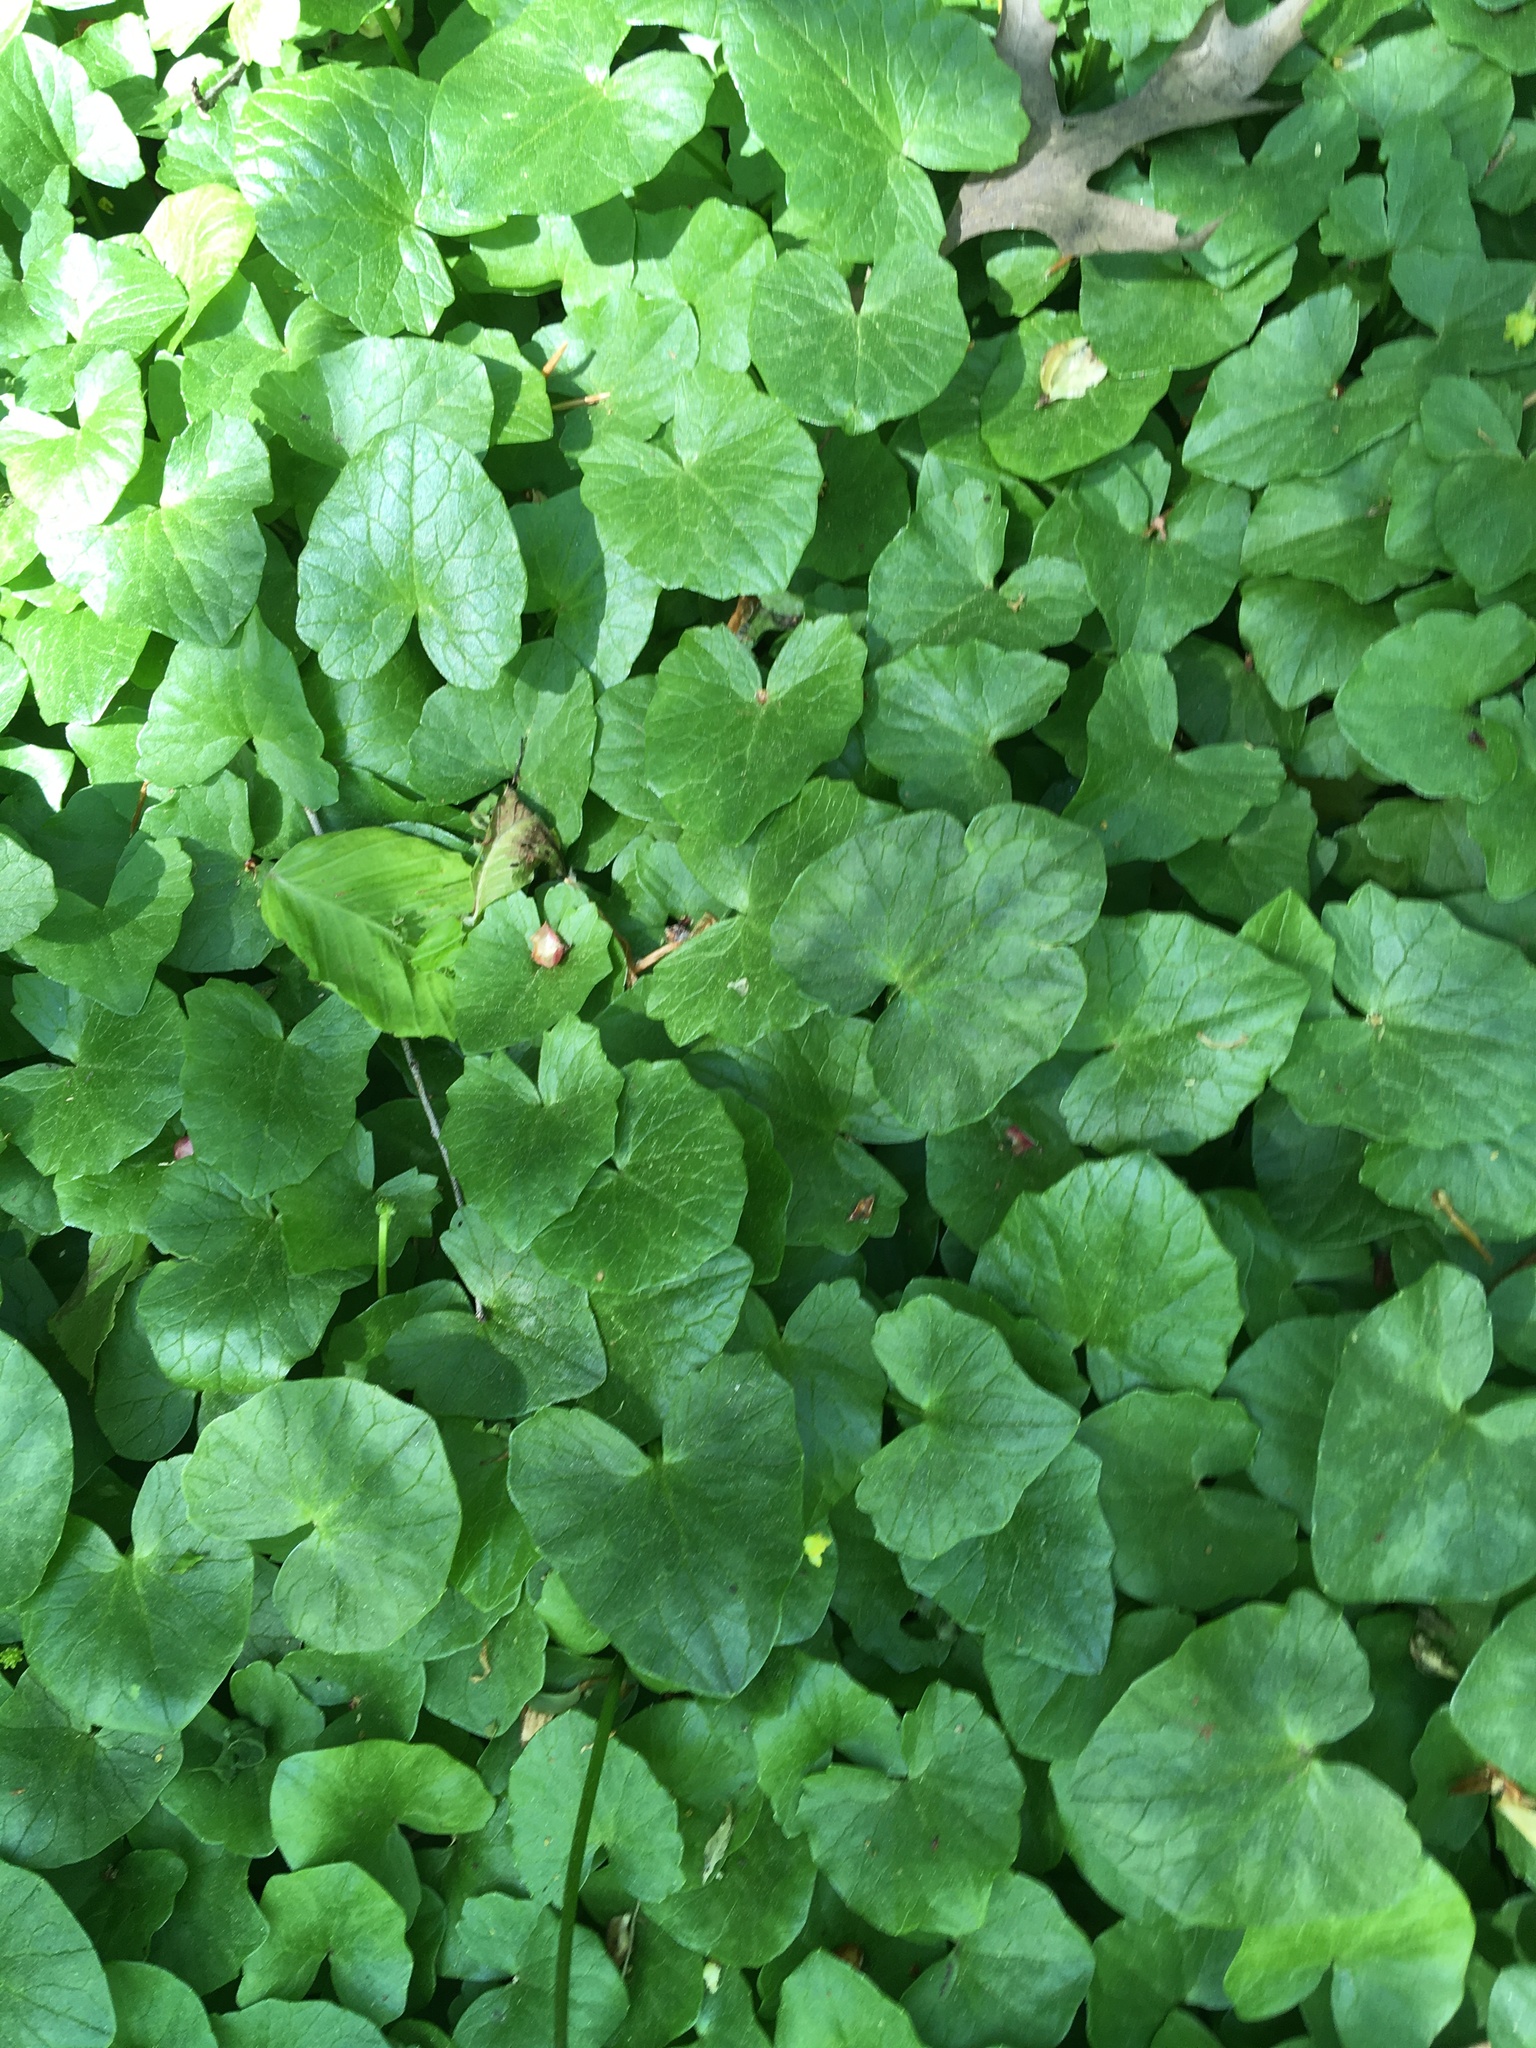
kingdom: Plantae
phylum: Tracheophyta
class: Magnoliopsida
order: Ranunculales
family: Ranunculaceae
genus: Ficaria
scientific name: Ficaria verna
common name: Lesser celandine
